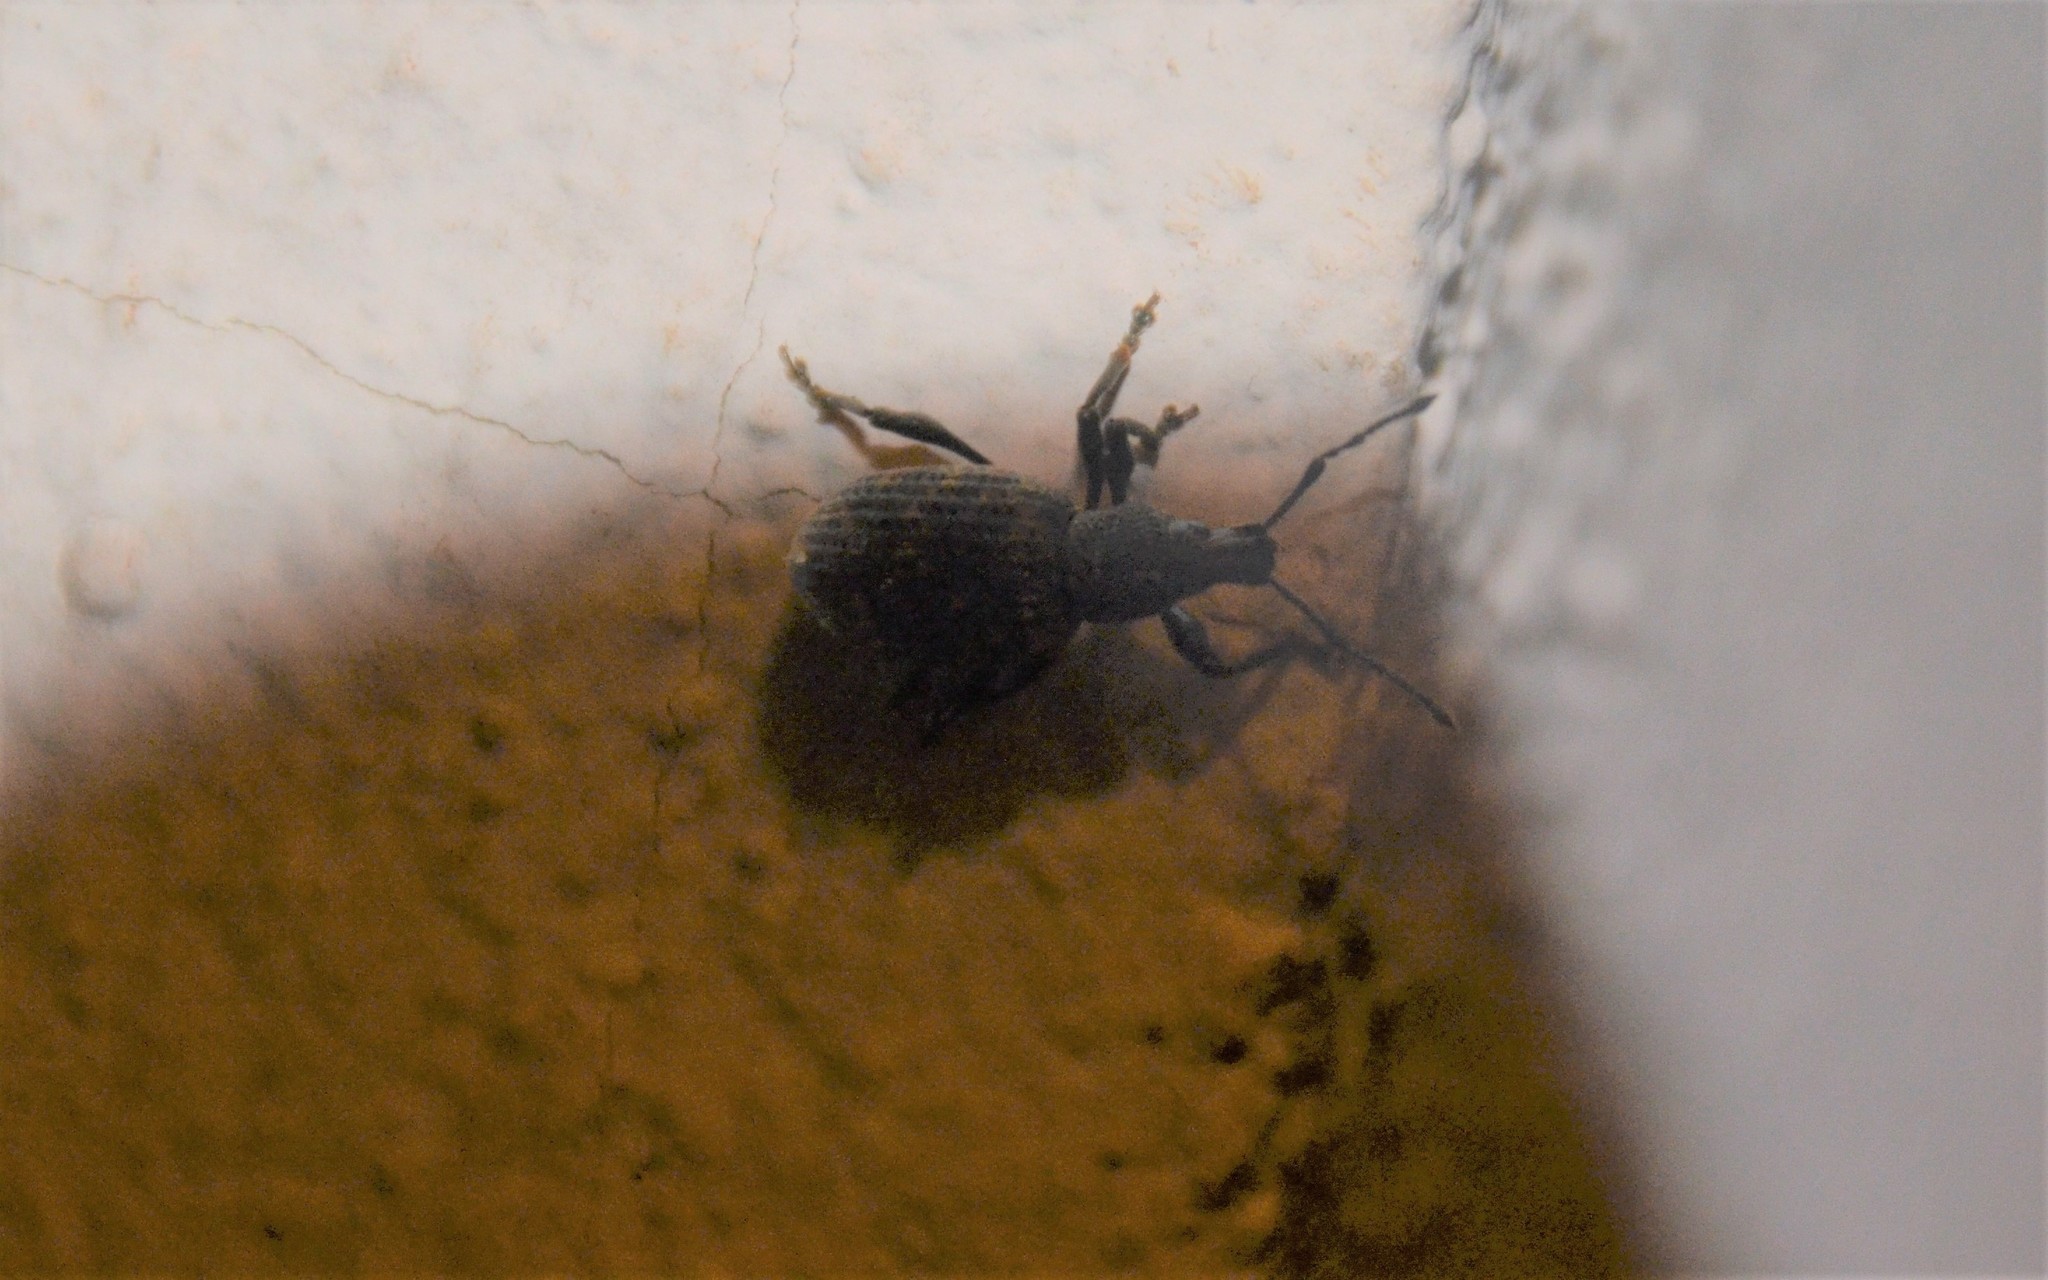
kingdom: Animalia
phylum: Arthropoda
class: Insecta
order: Coleoptera
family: Curculionidae
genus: Otiorhynchus
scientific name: Otiorhynchus sulcatus
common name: Black vine weevil
